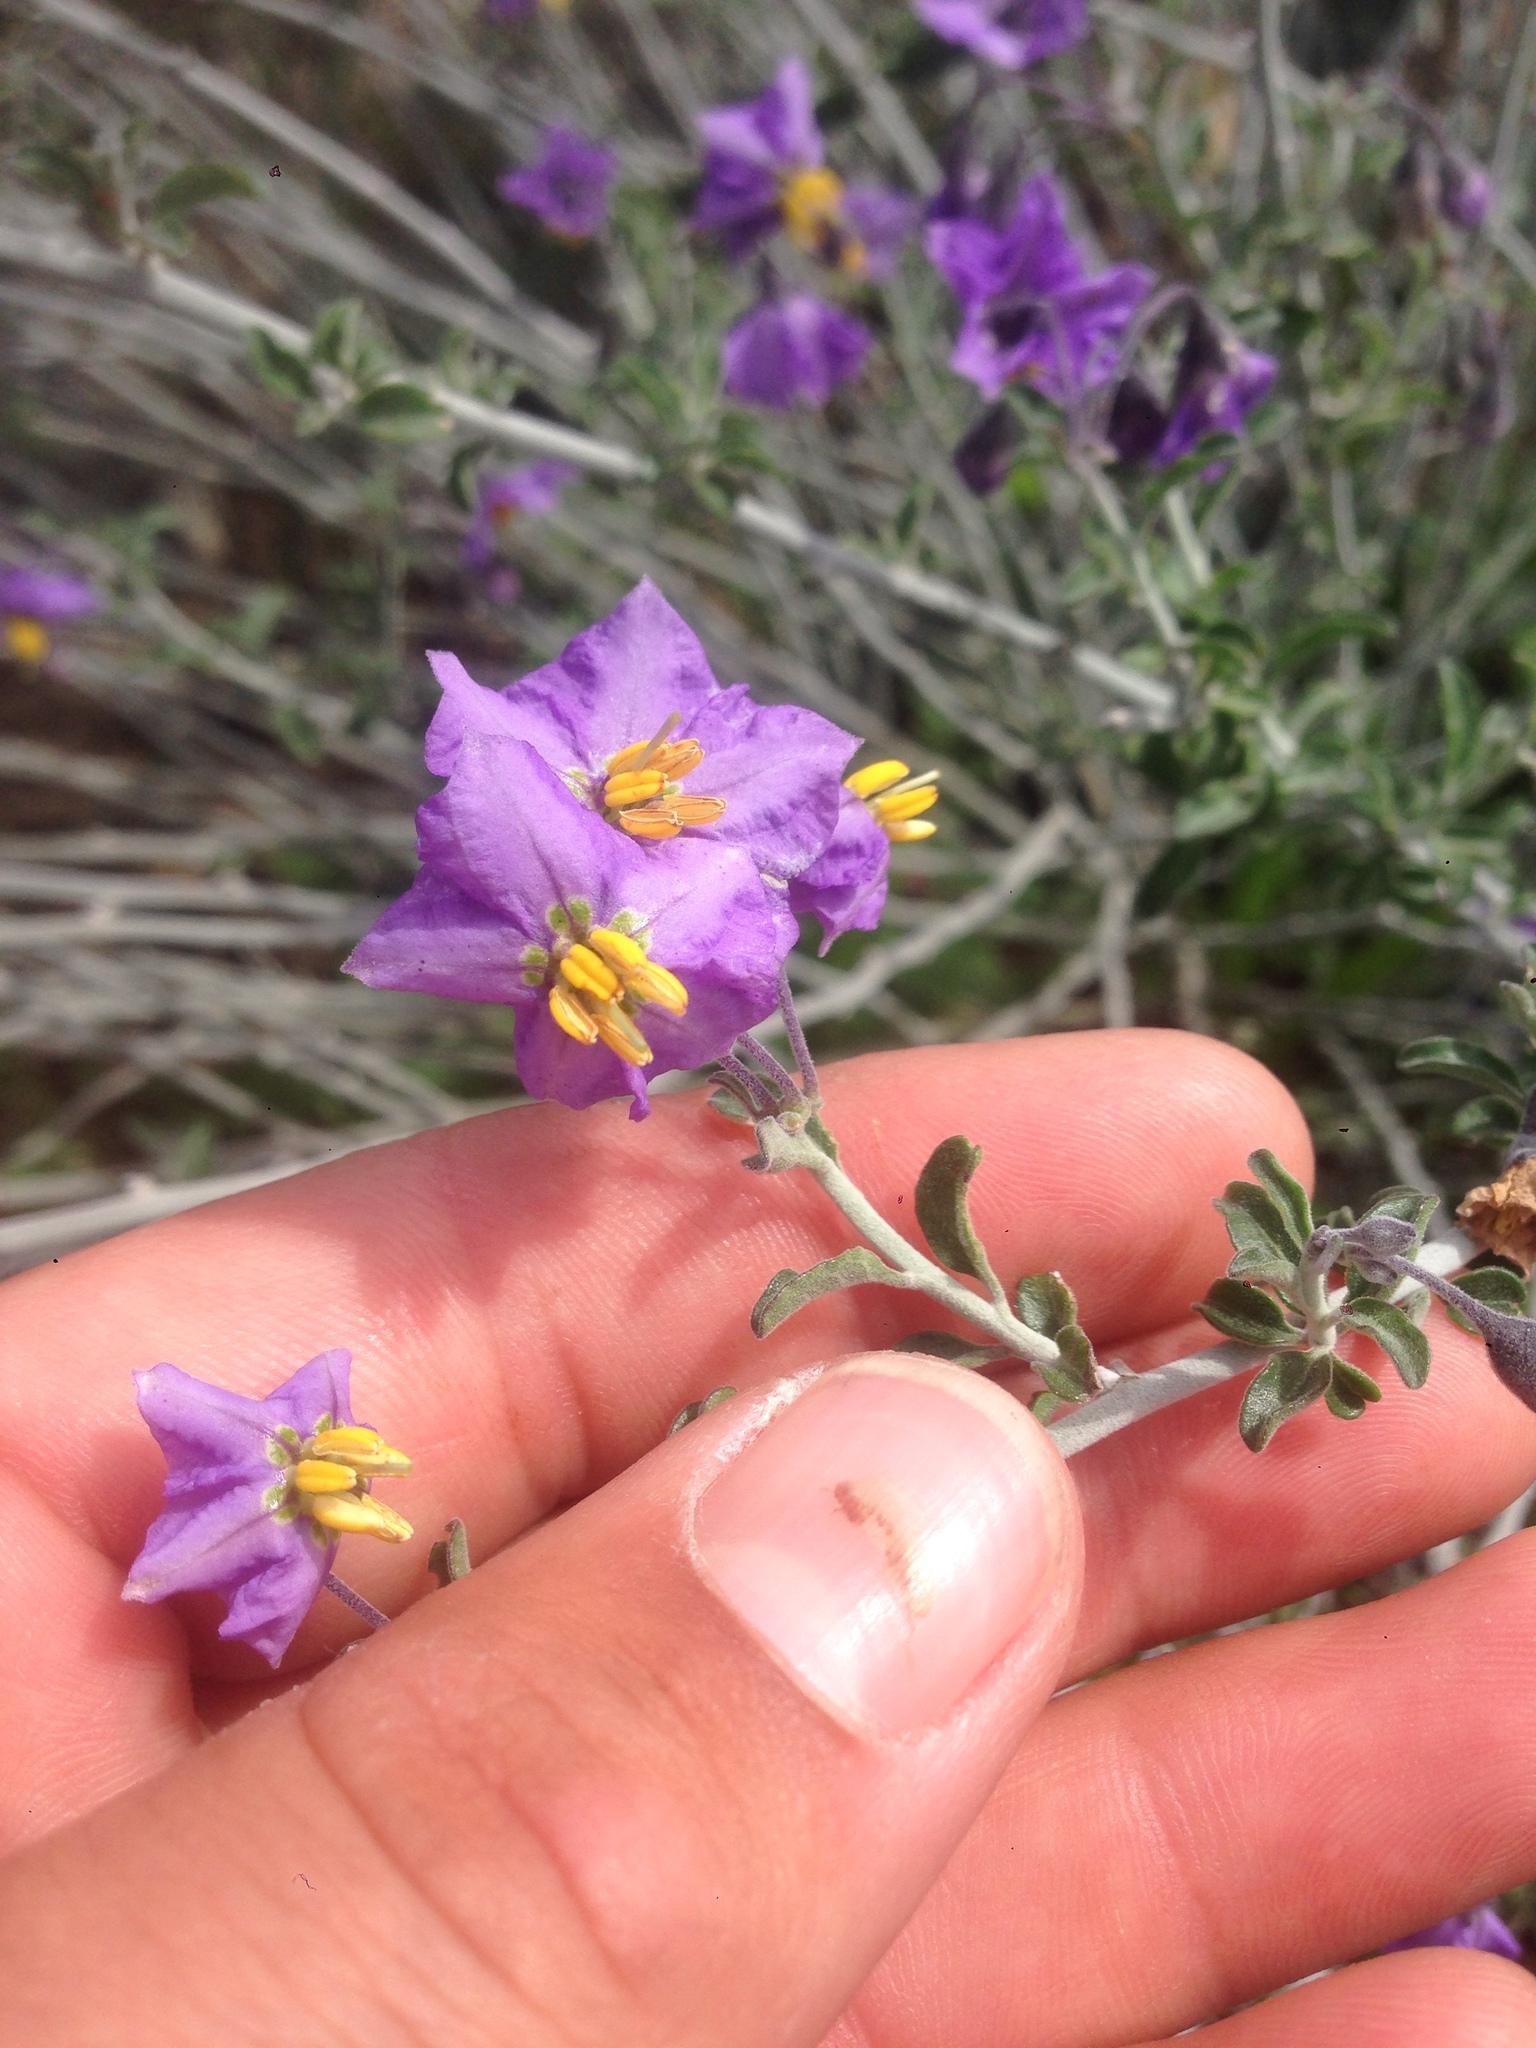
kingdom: Plantae
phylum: Tracheophyta
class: Magnoliopsida
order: Solanales
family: Solanaceae
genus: Solanum
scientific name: Solanum umbelliferum
